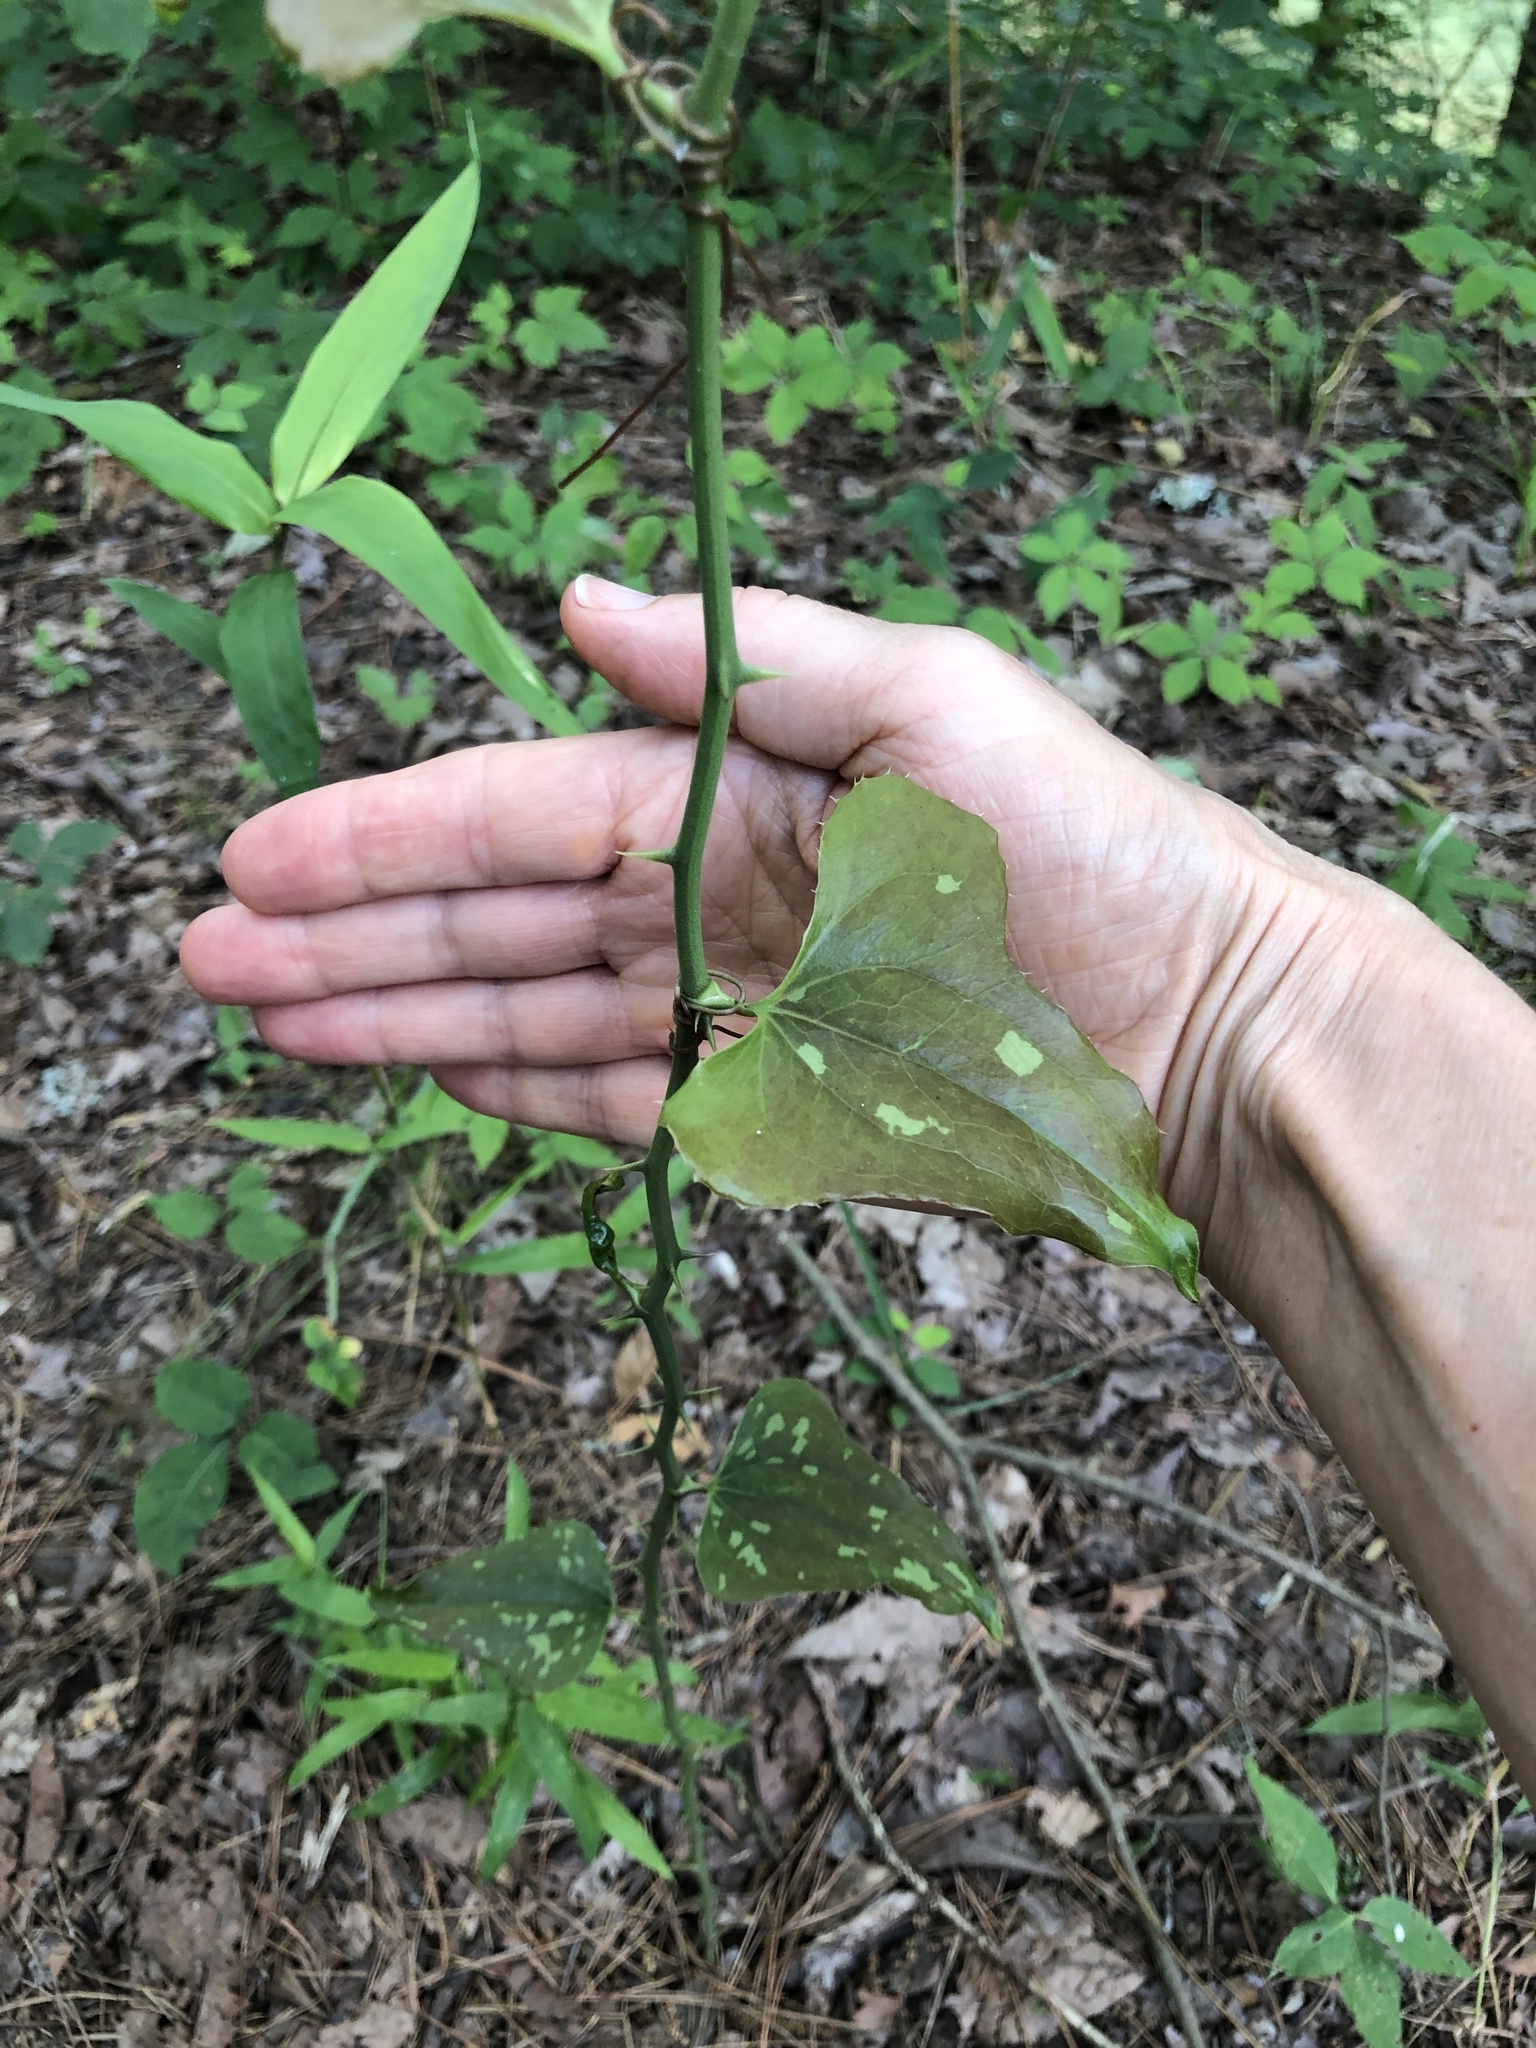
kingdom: Plantae
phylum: Tracheophyta
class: Liliopsida
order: Liliales
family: Smilacaceae
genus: Smilax
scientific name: Smilax bona-nox
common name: Catbrier
